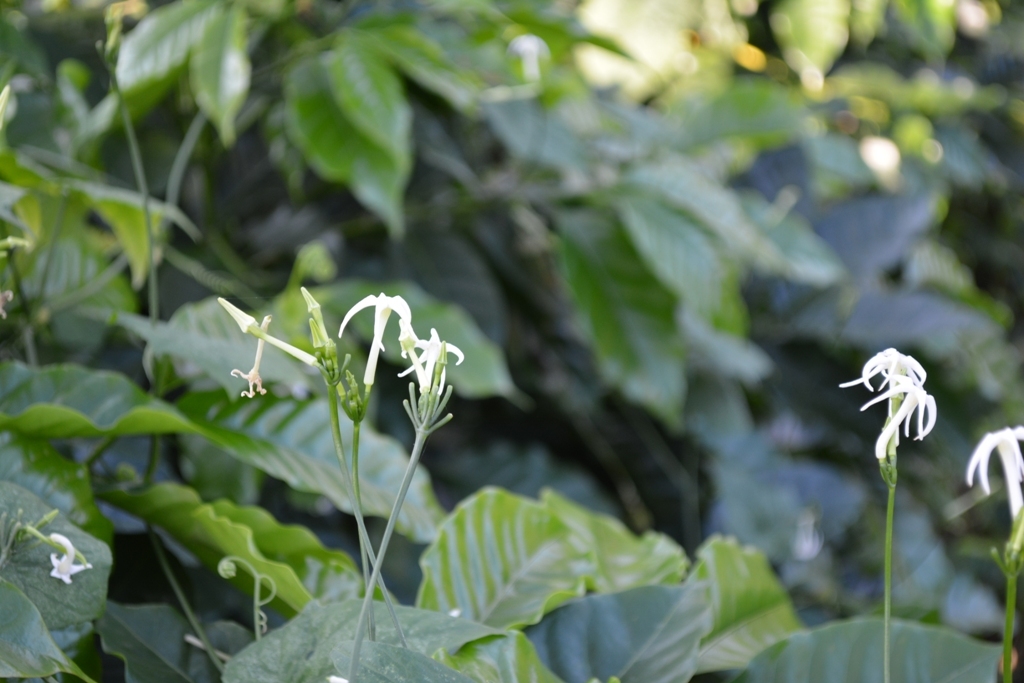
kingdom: Plantae
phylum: Tracheophyta
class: Magnoliopsida
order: Cucurbitales
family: Cucurbitaceae
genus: Cyclanthera
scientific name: Cyclanthera carthagenensis
